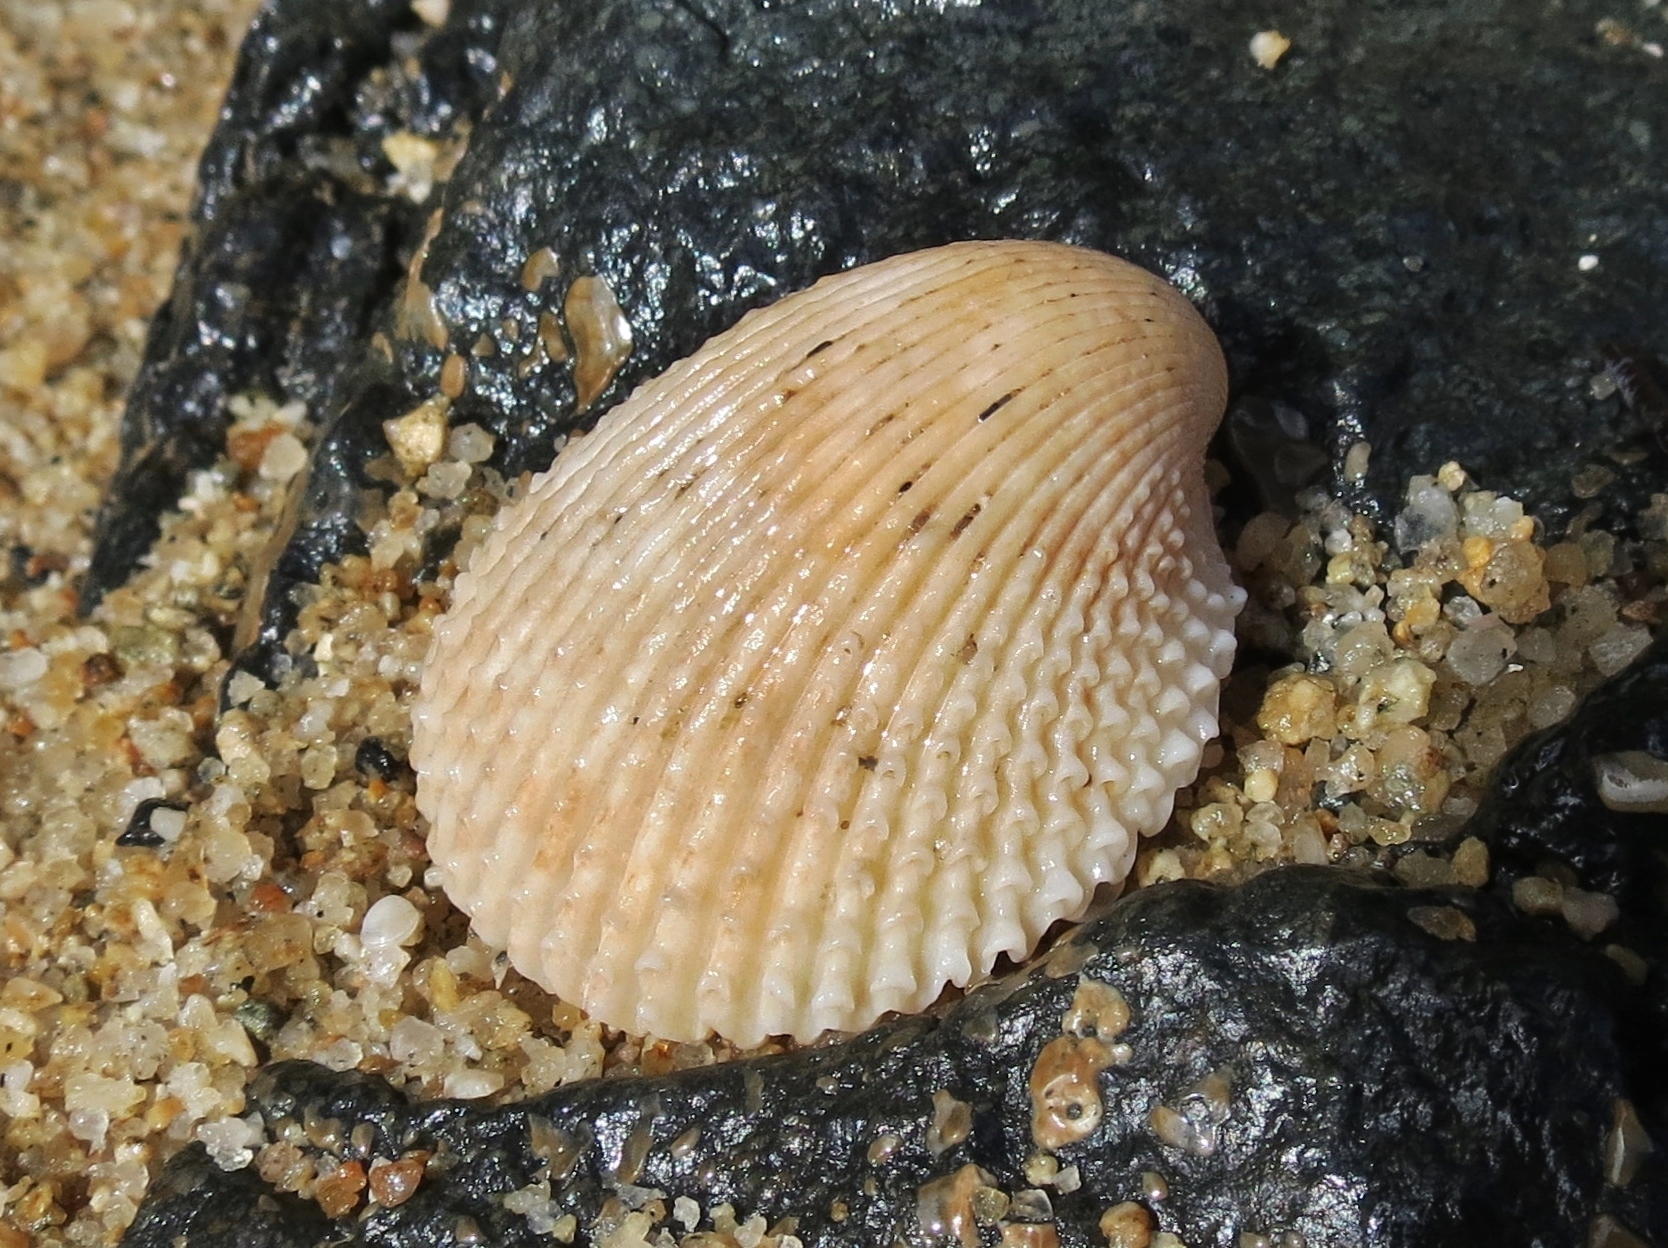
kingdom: Animalia
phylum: Mollusca
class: Bivalvia
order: Cardiida
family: Cardiidae
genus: Trachycardium
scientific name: Trachycardium isocardia
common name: Even pricklycockle
